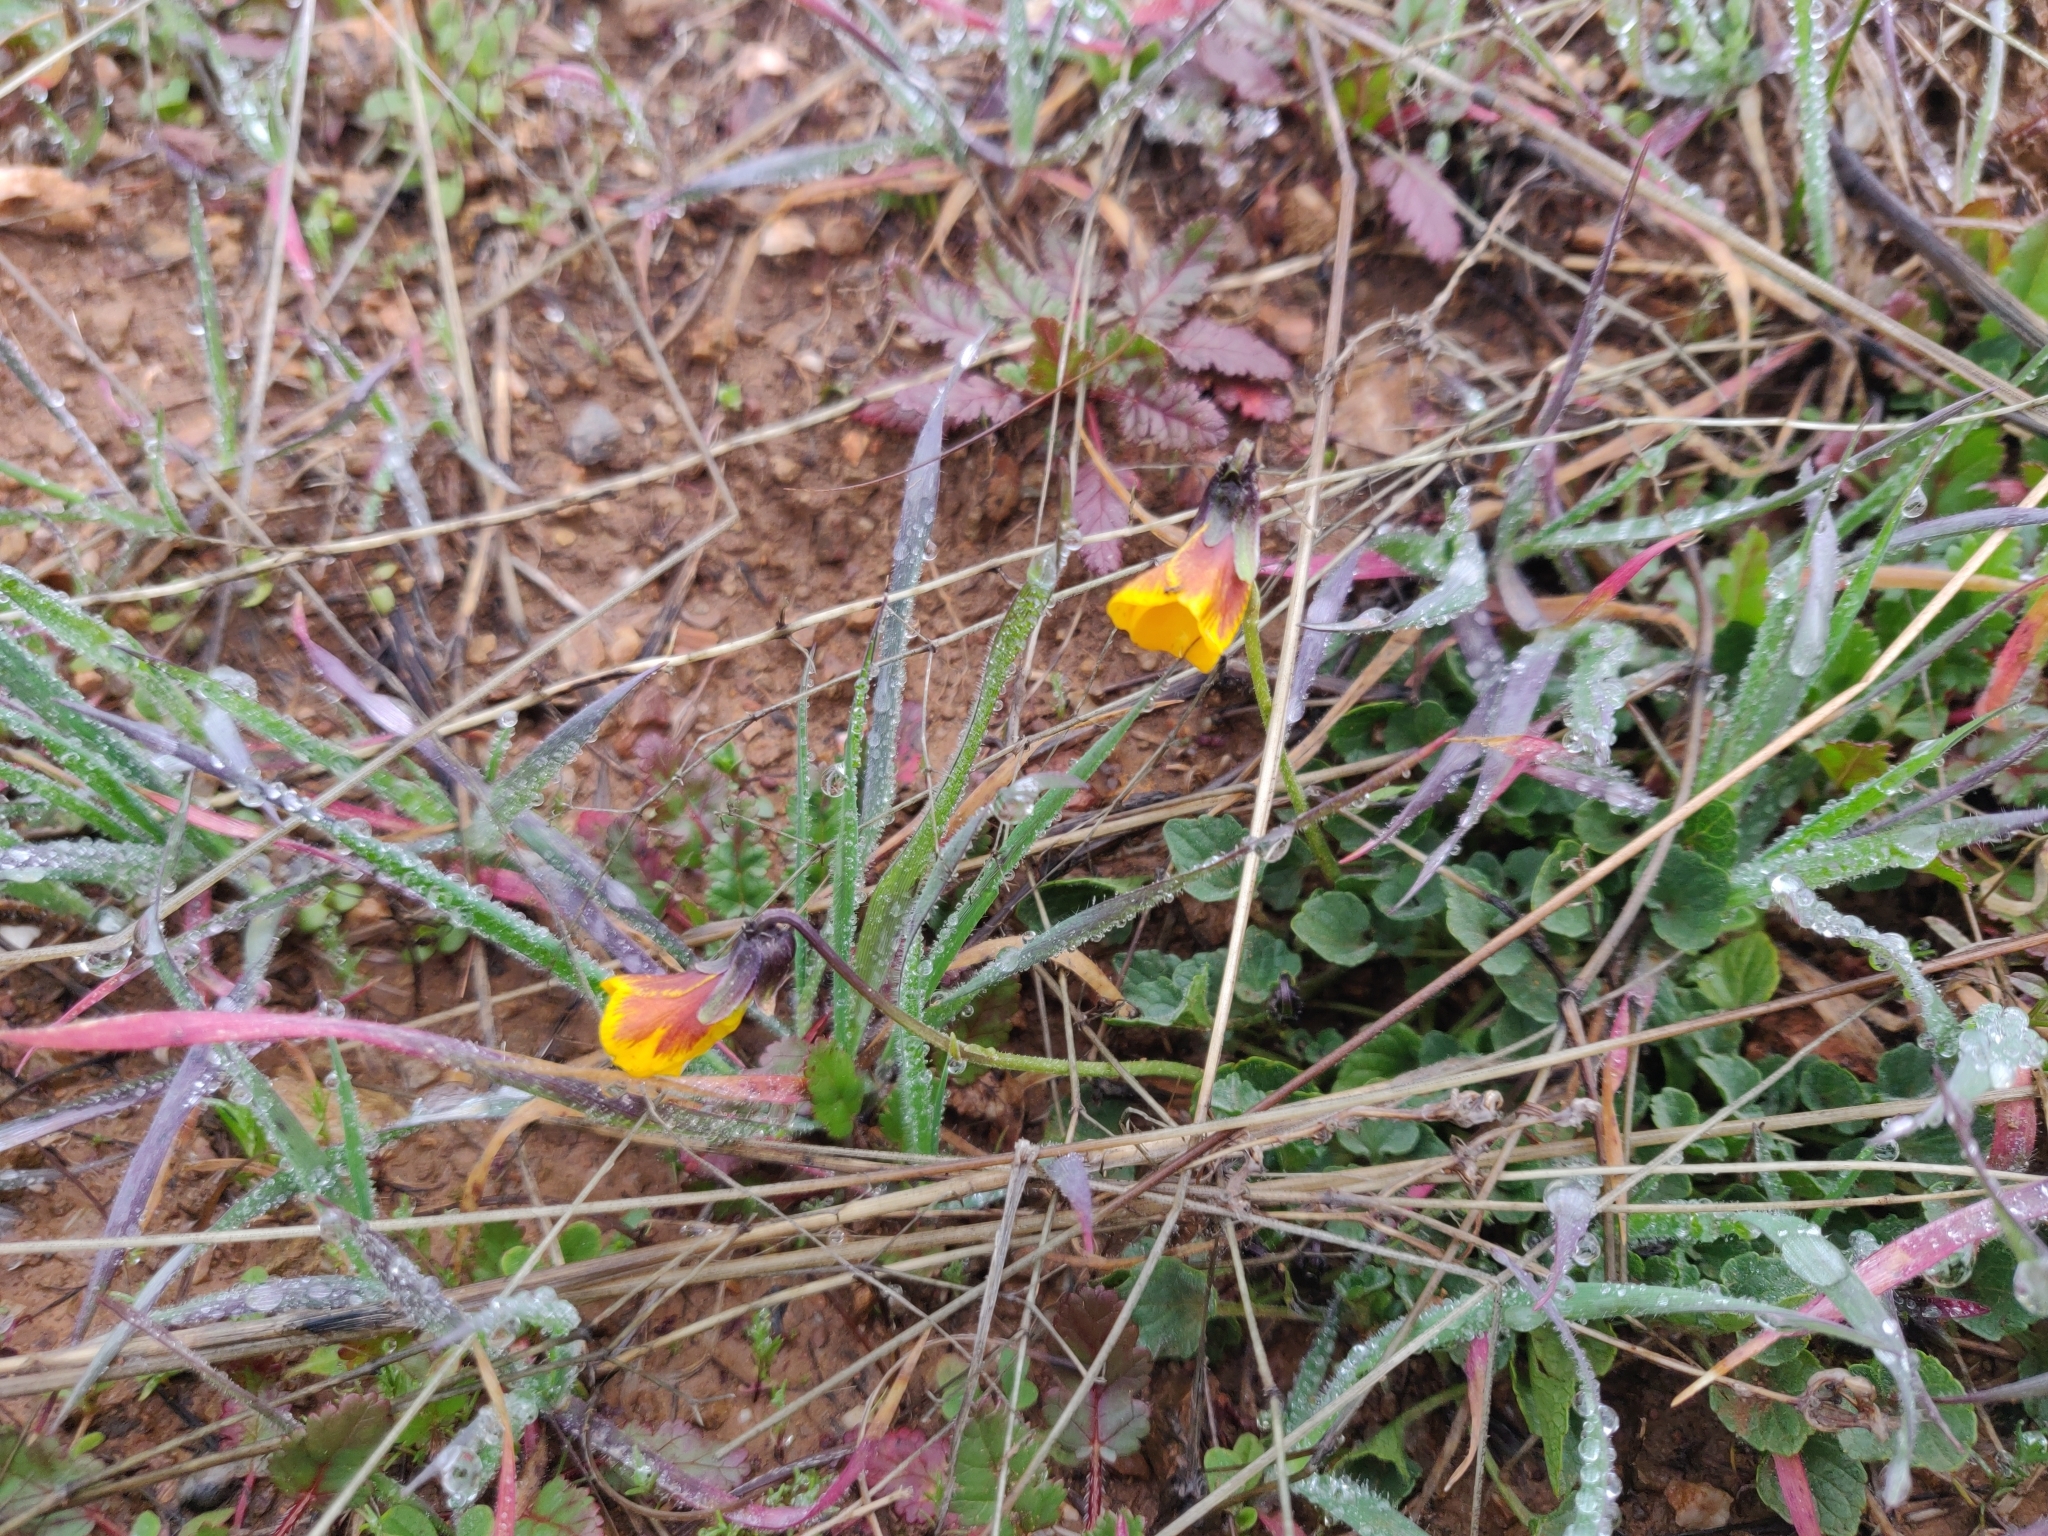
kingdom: Plantae
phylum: Tracheophyta
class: Magnoliopsida
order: Malpighiales
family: Violaceae
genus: Viola
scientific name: Viola pedunculata
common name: California golden violet
